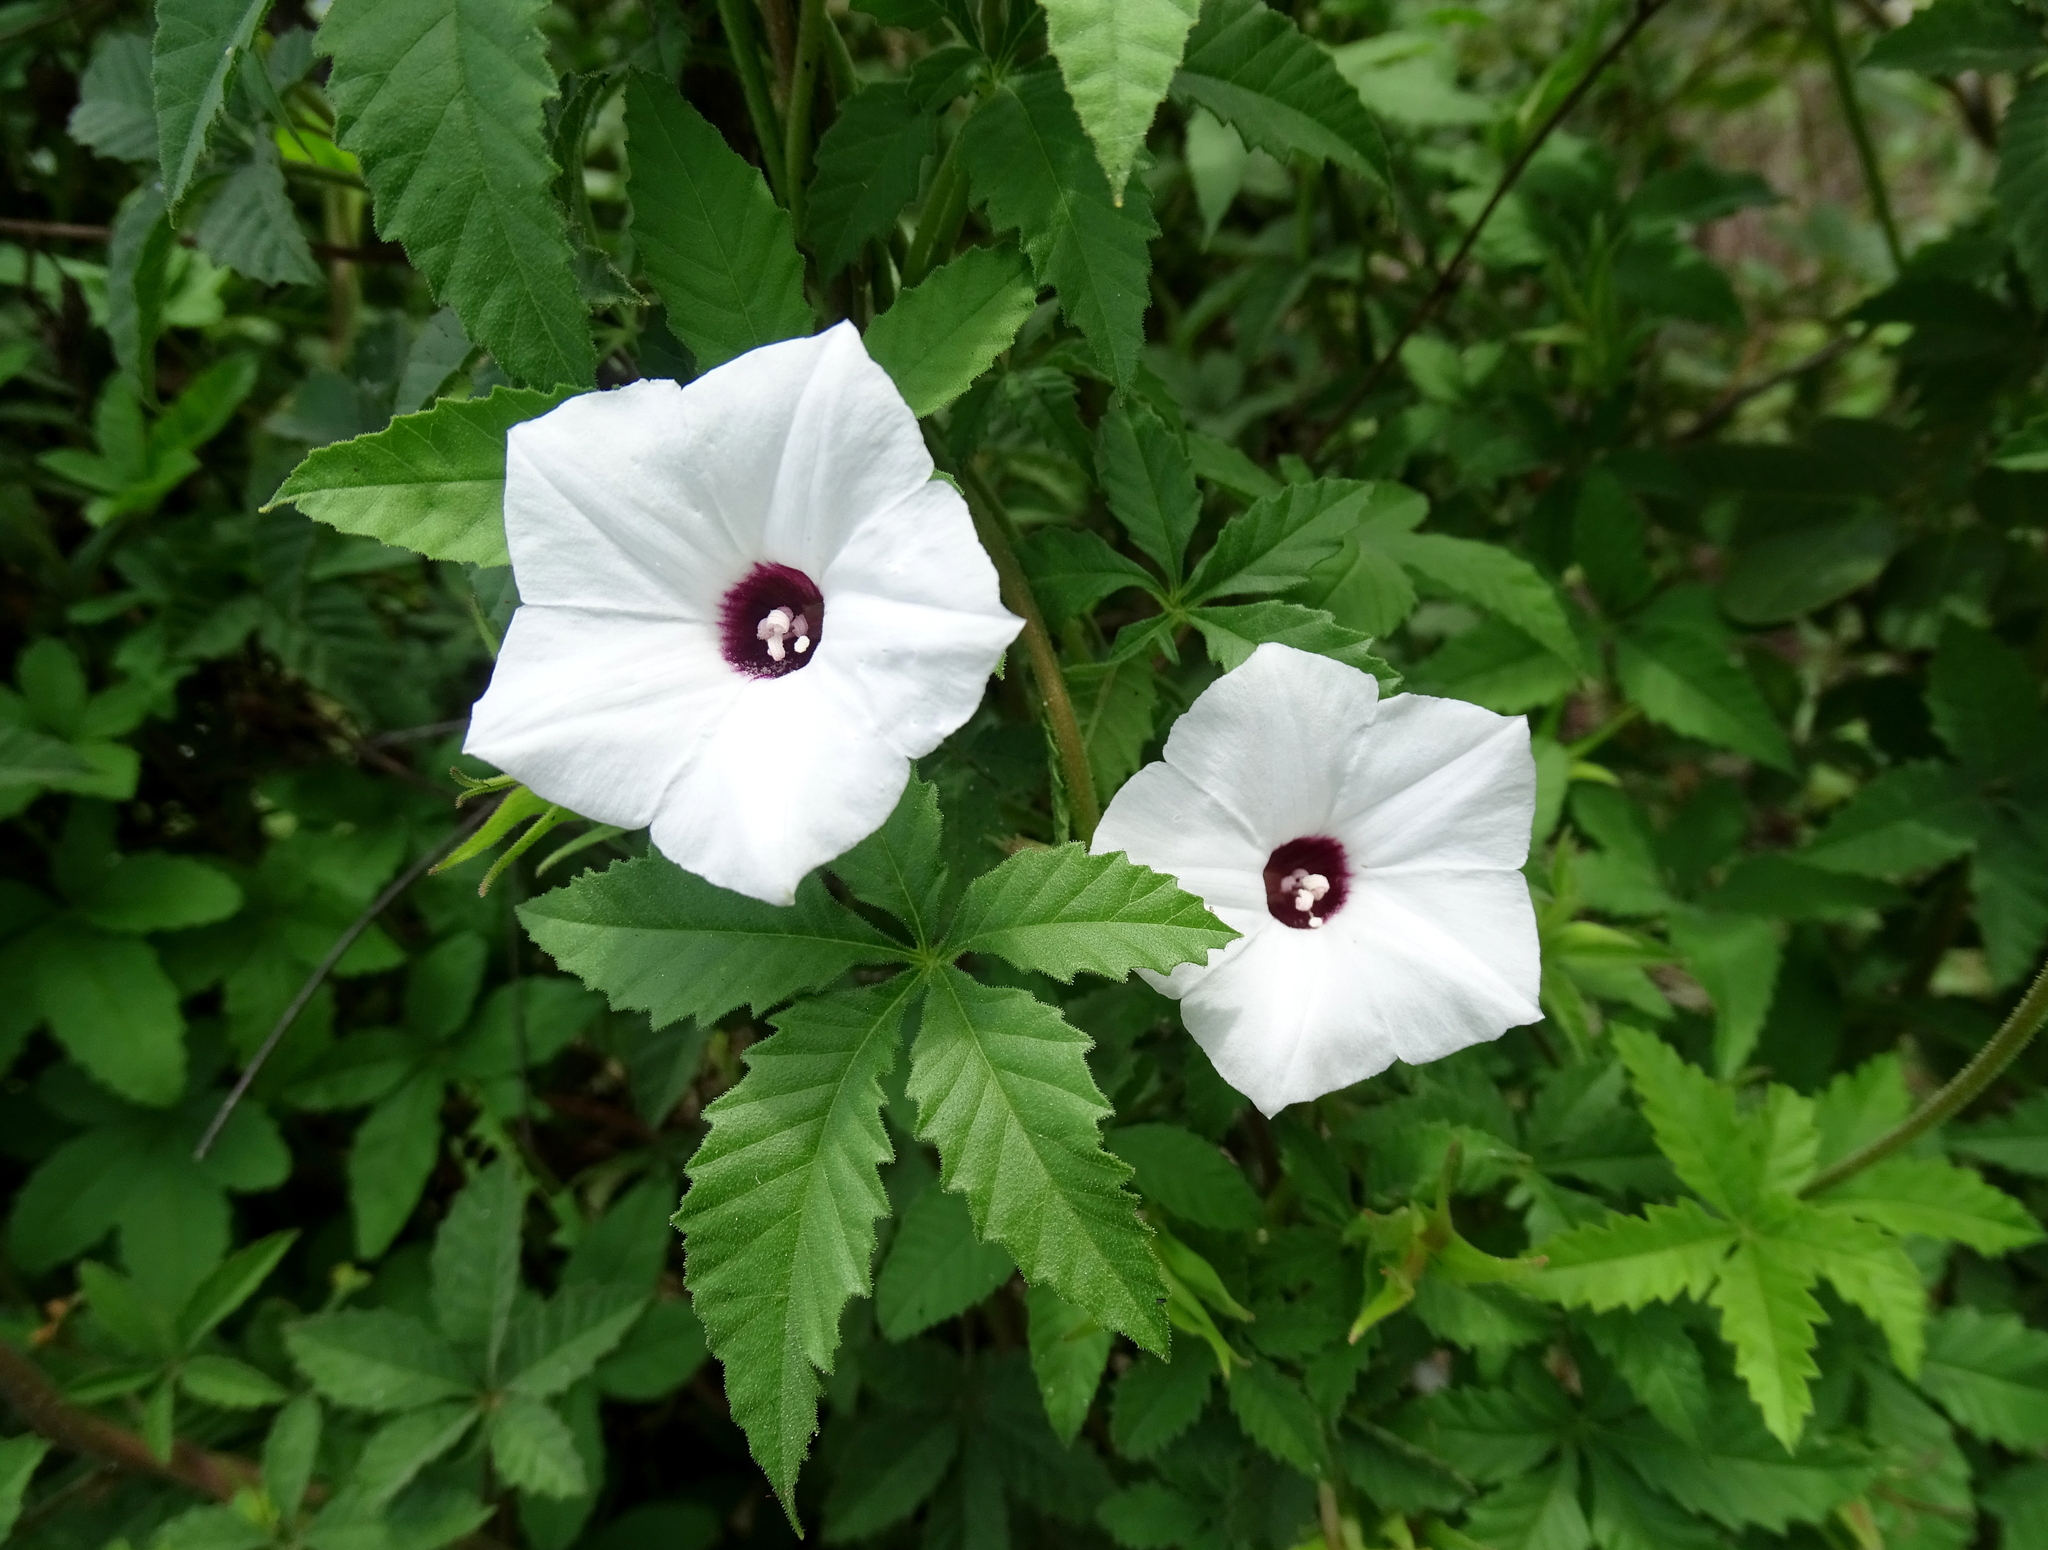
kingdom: Plantae
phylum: Tracheophyta
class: Magnoliopsida
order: Solanales
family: Convolvulaceae
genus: Distimake
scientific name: Distimake lobulibracteatus
